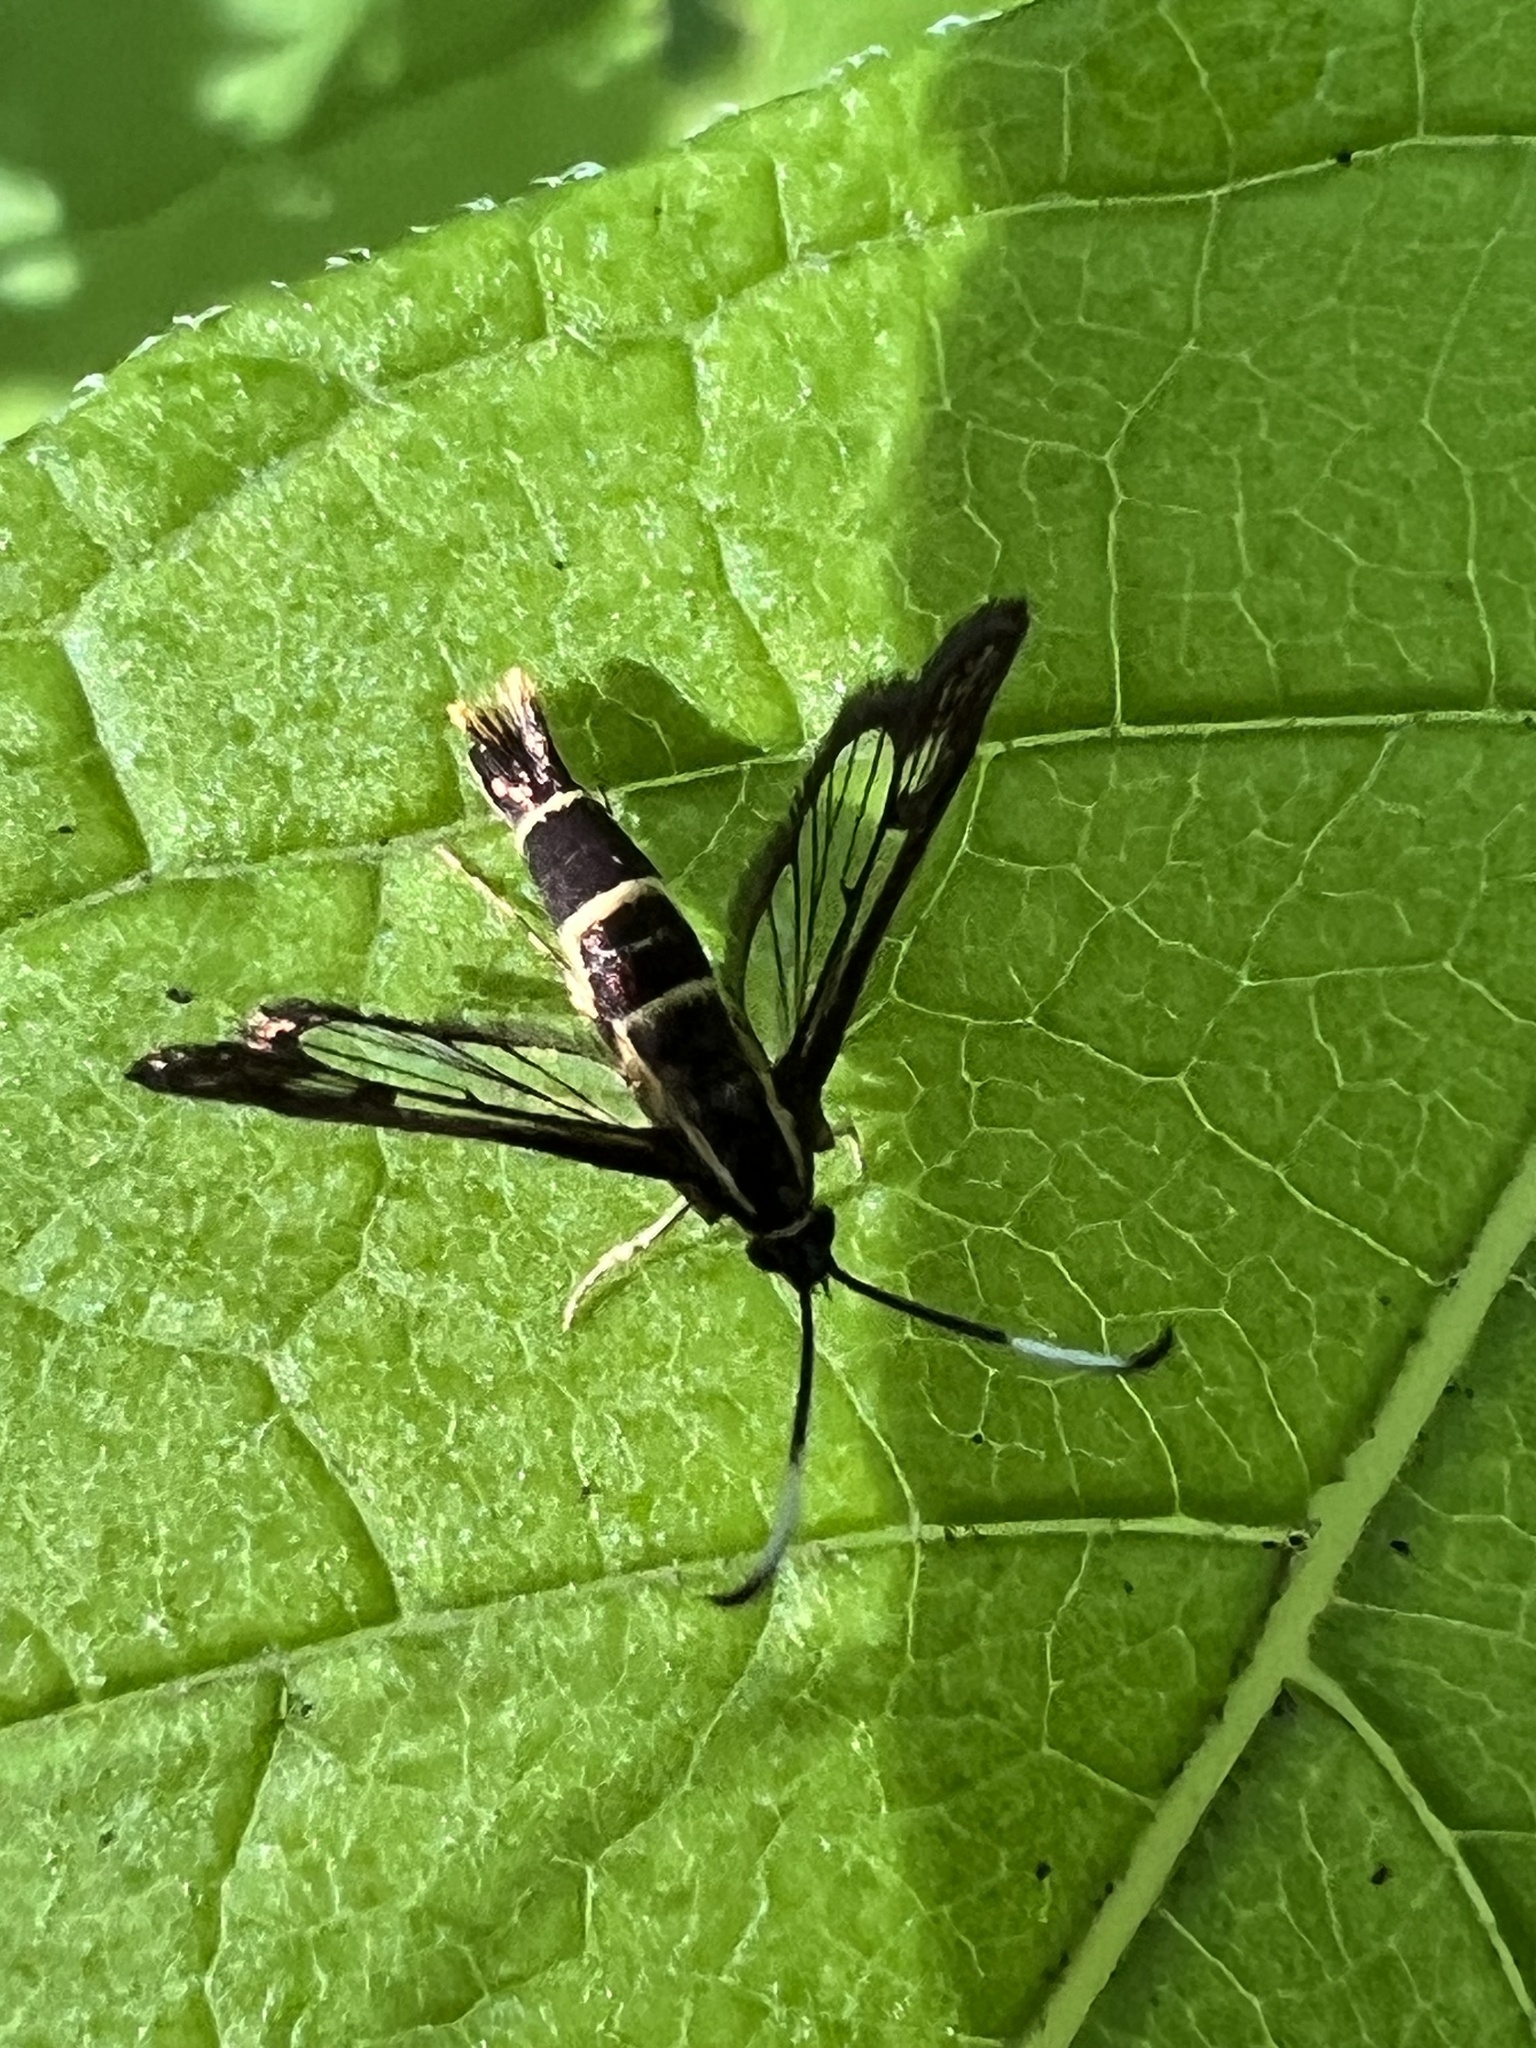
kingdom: Animalia
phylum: Arthropoda
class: Insecta
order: Lepidoptera
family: Sesiidae
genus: Carmenta
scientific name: Carmenta bassiformis
